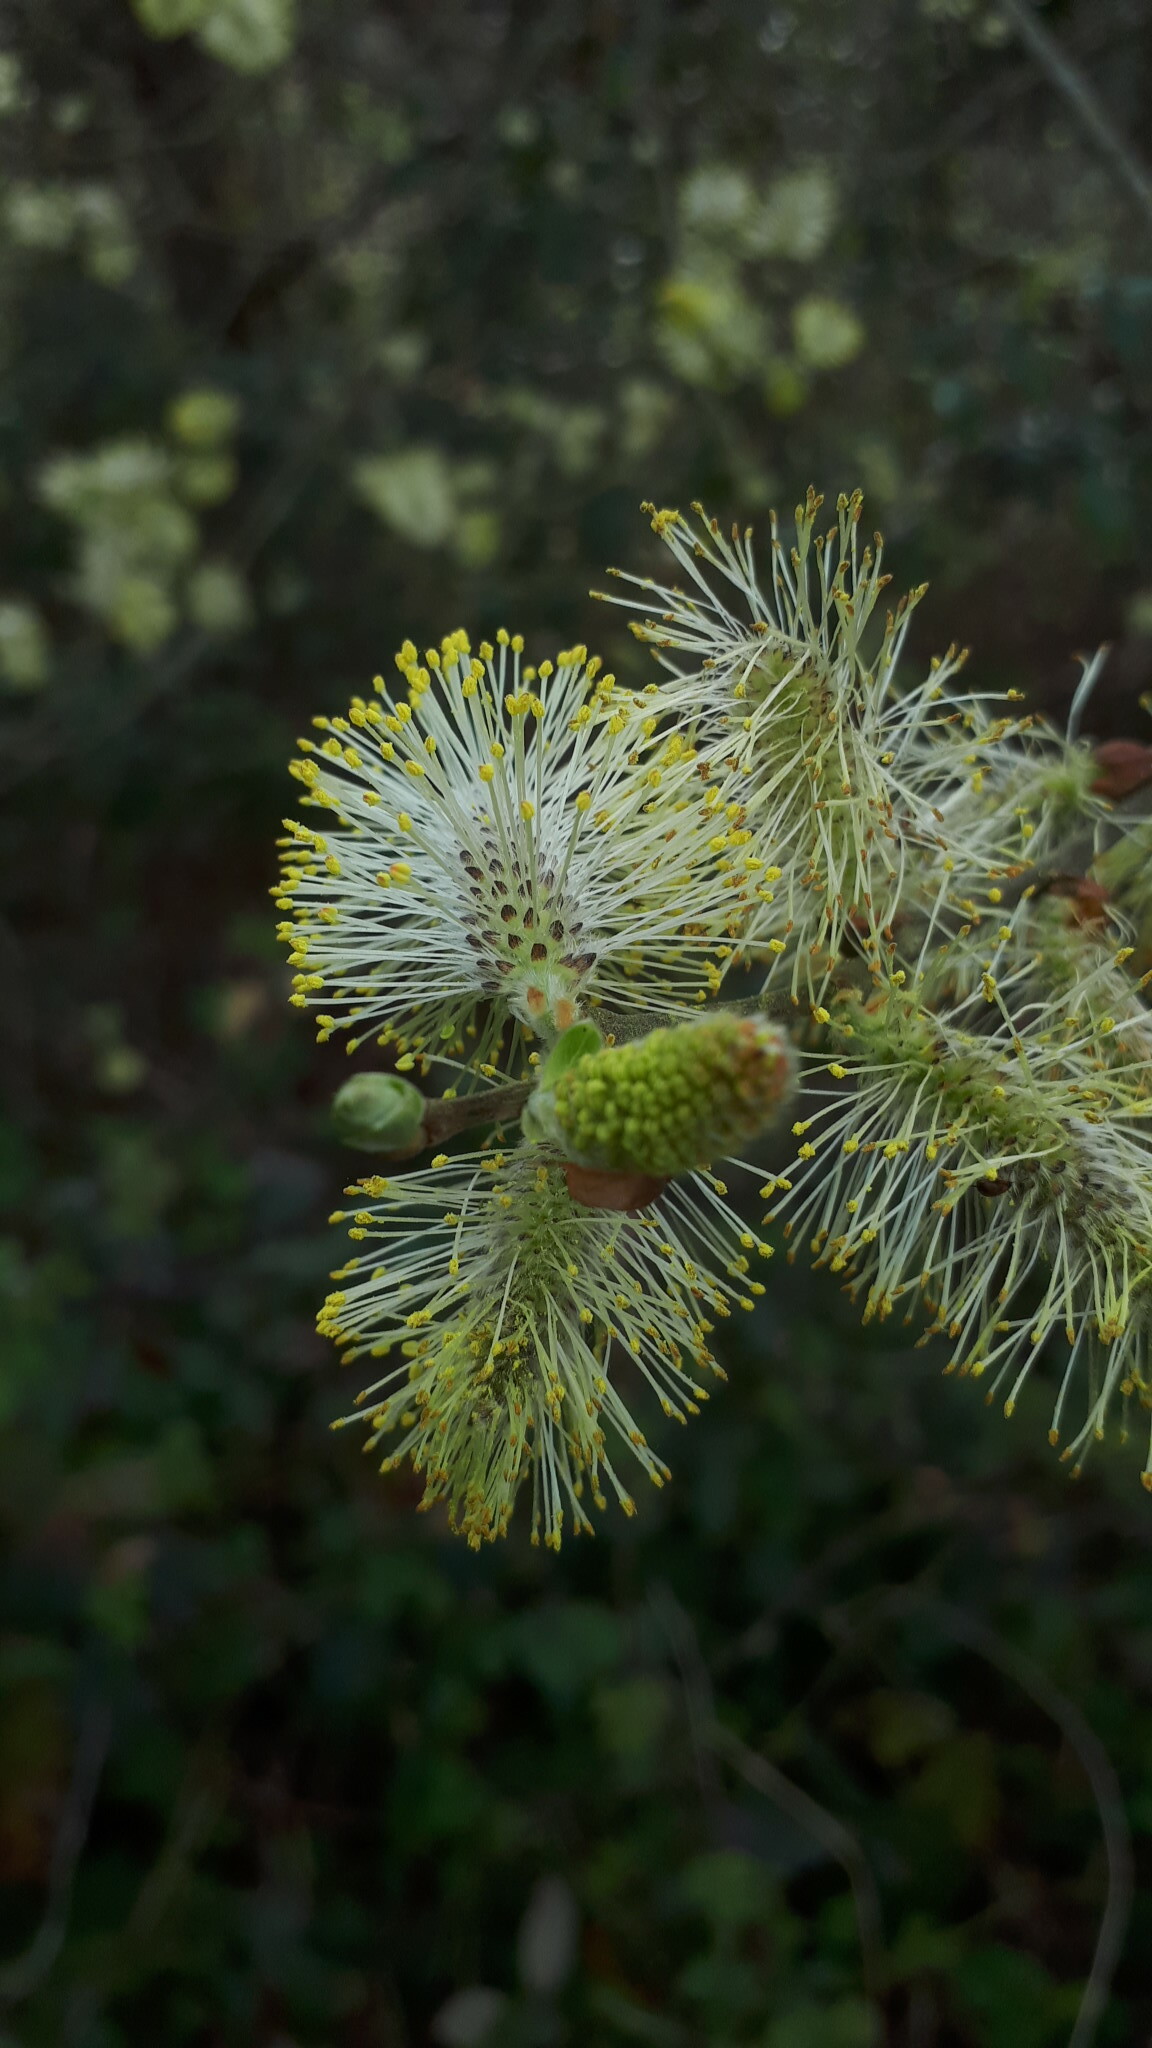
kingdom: Plantae
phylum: Tracheophyta
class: Magnoliopsida
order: Malpighiales
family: Salicaceae
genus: Salix
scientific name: Salix atrocinerea
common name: Rusty willow
